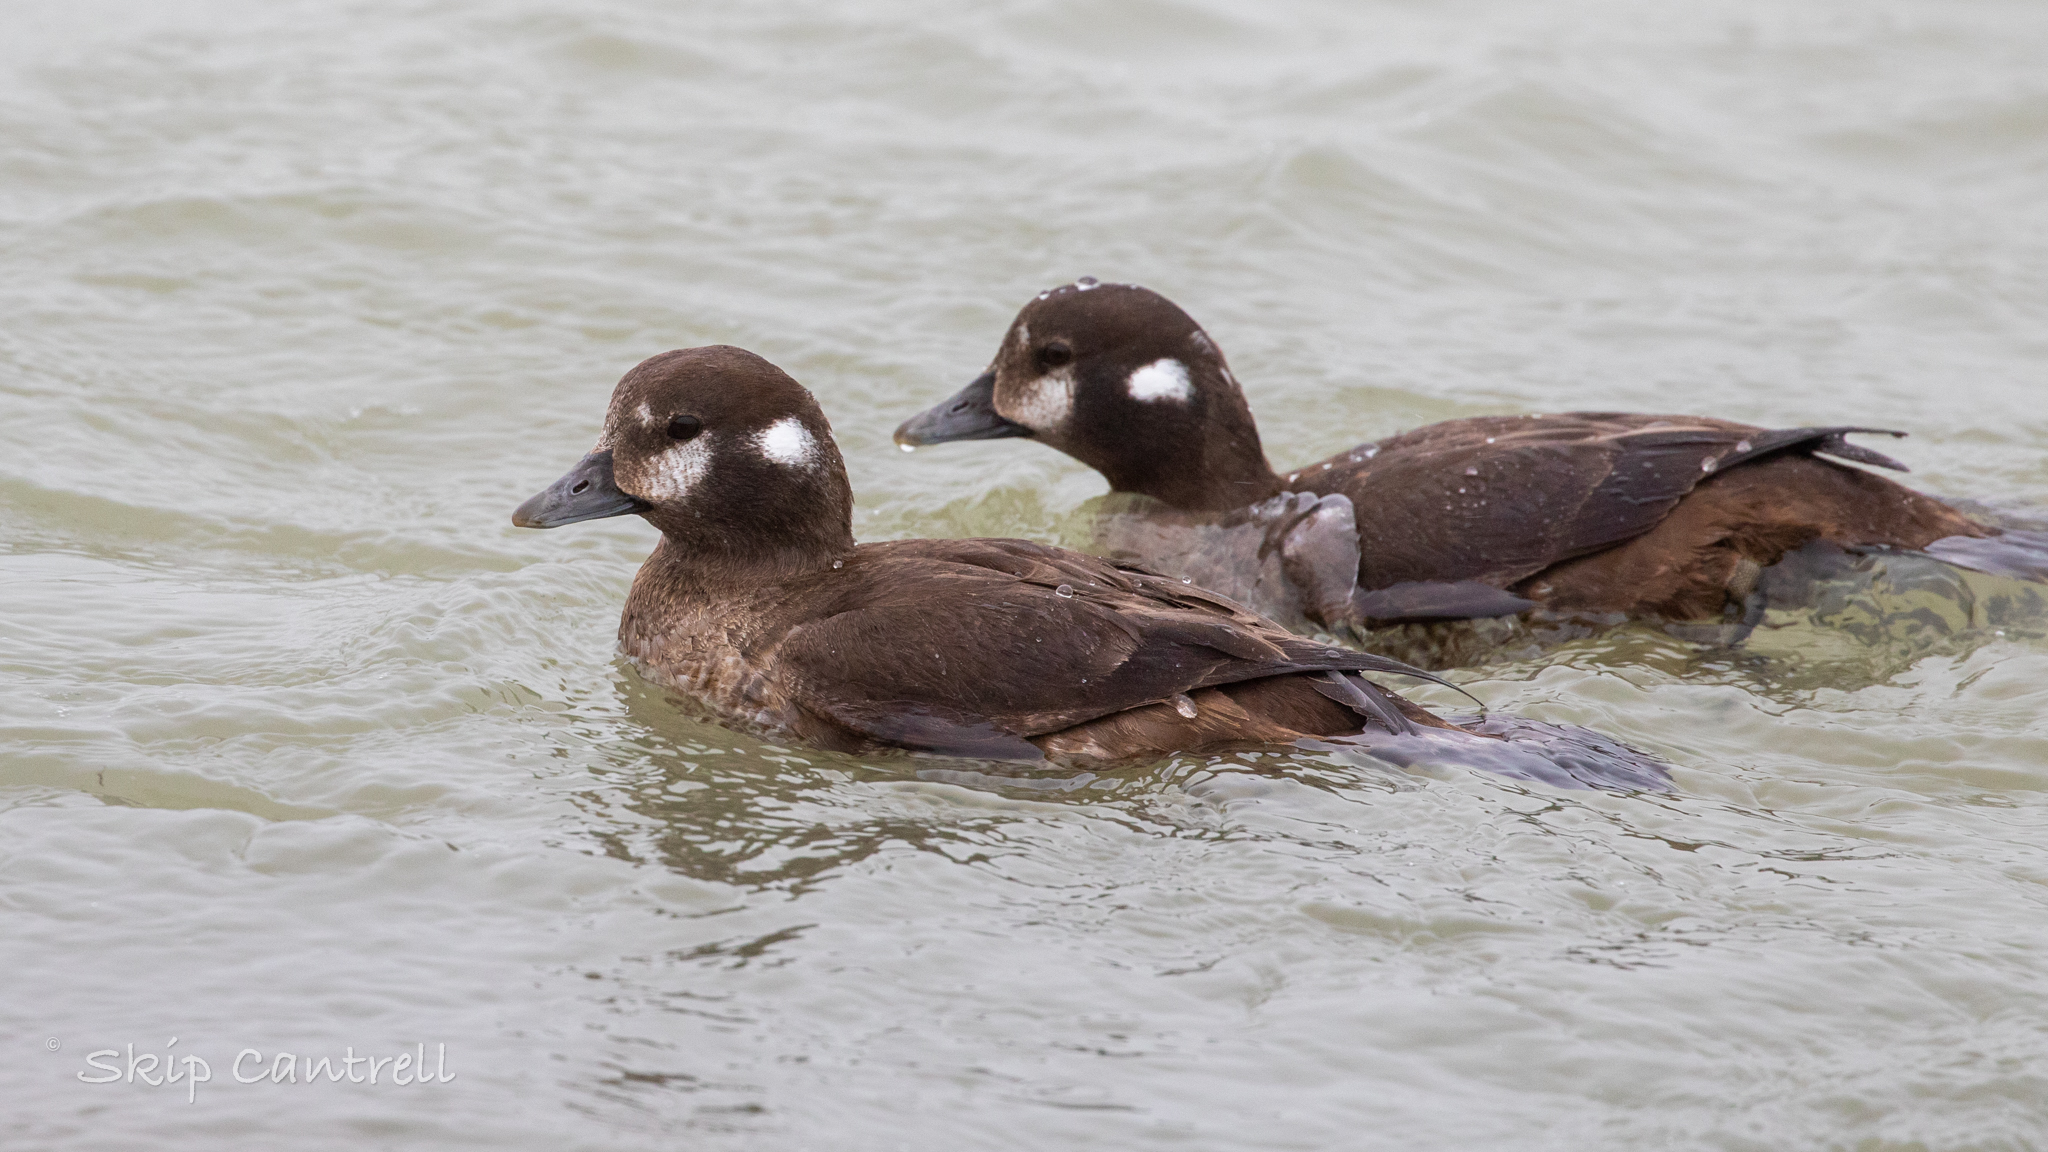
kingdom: Animalia
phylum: Chordata
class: Aves
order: Anseriformes
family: Anatidae
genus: Histrionicus
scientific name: Histrionicus histrionicus
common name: Harlequin duck
